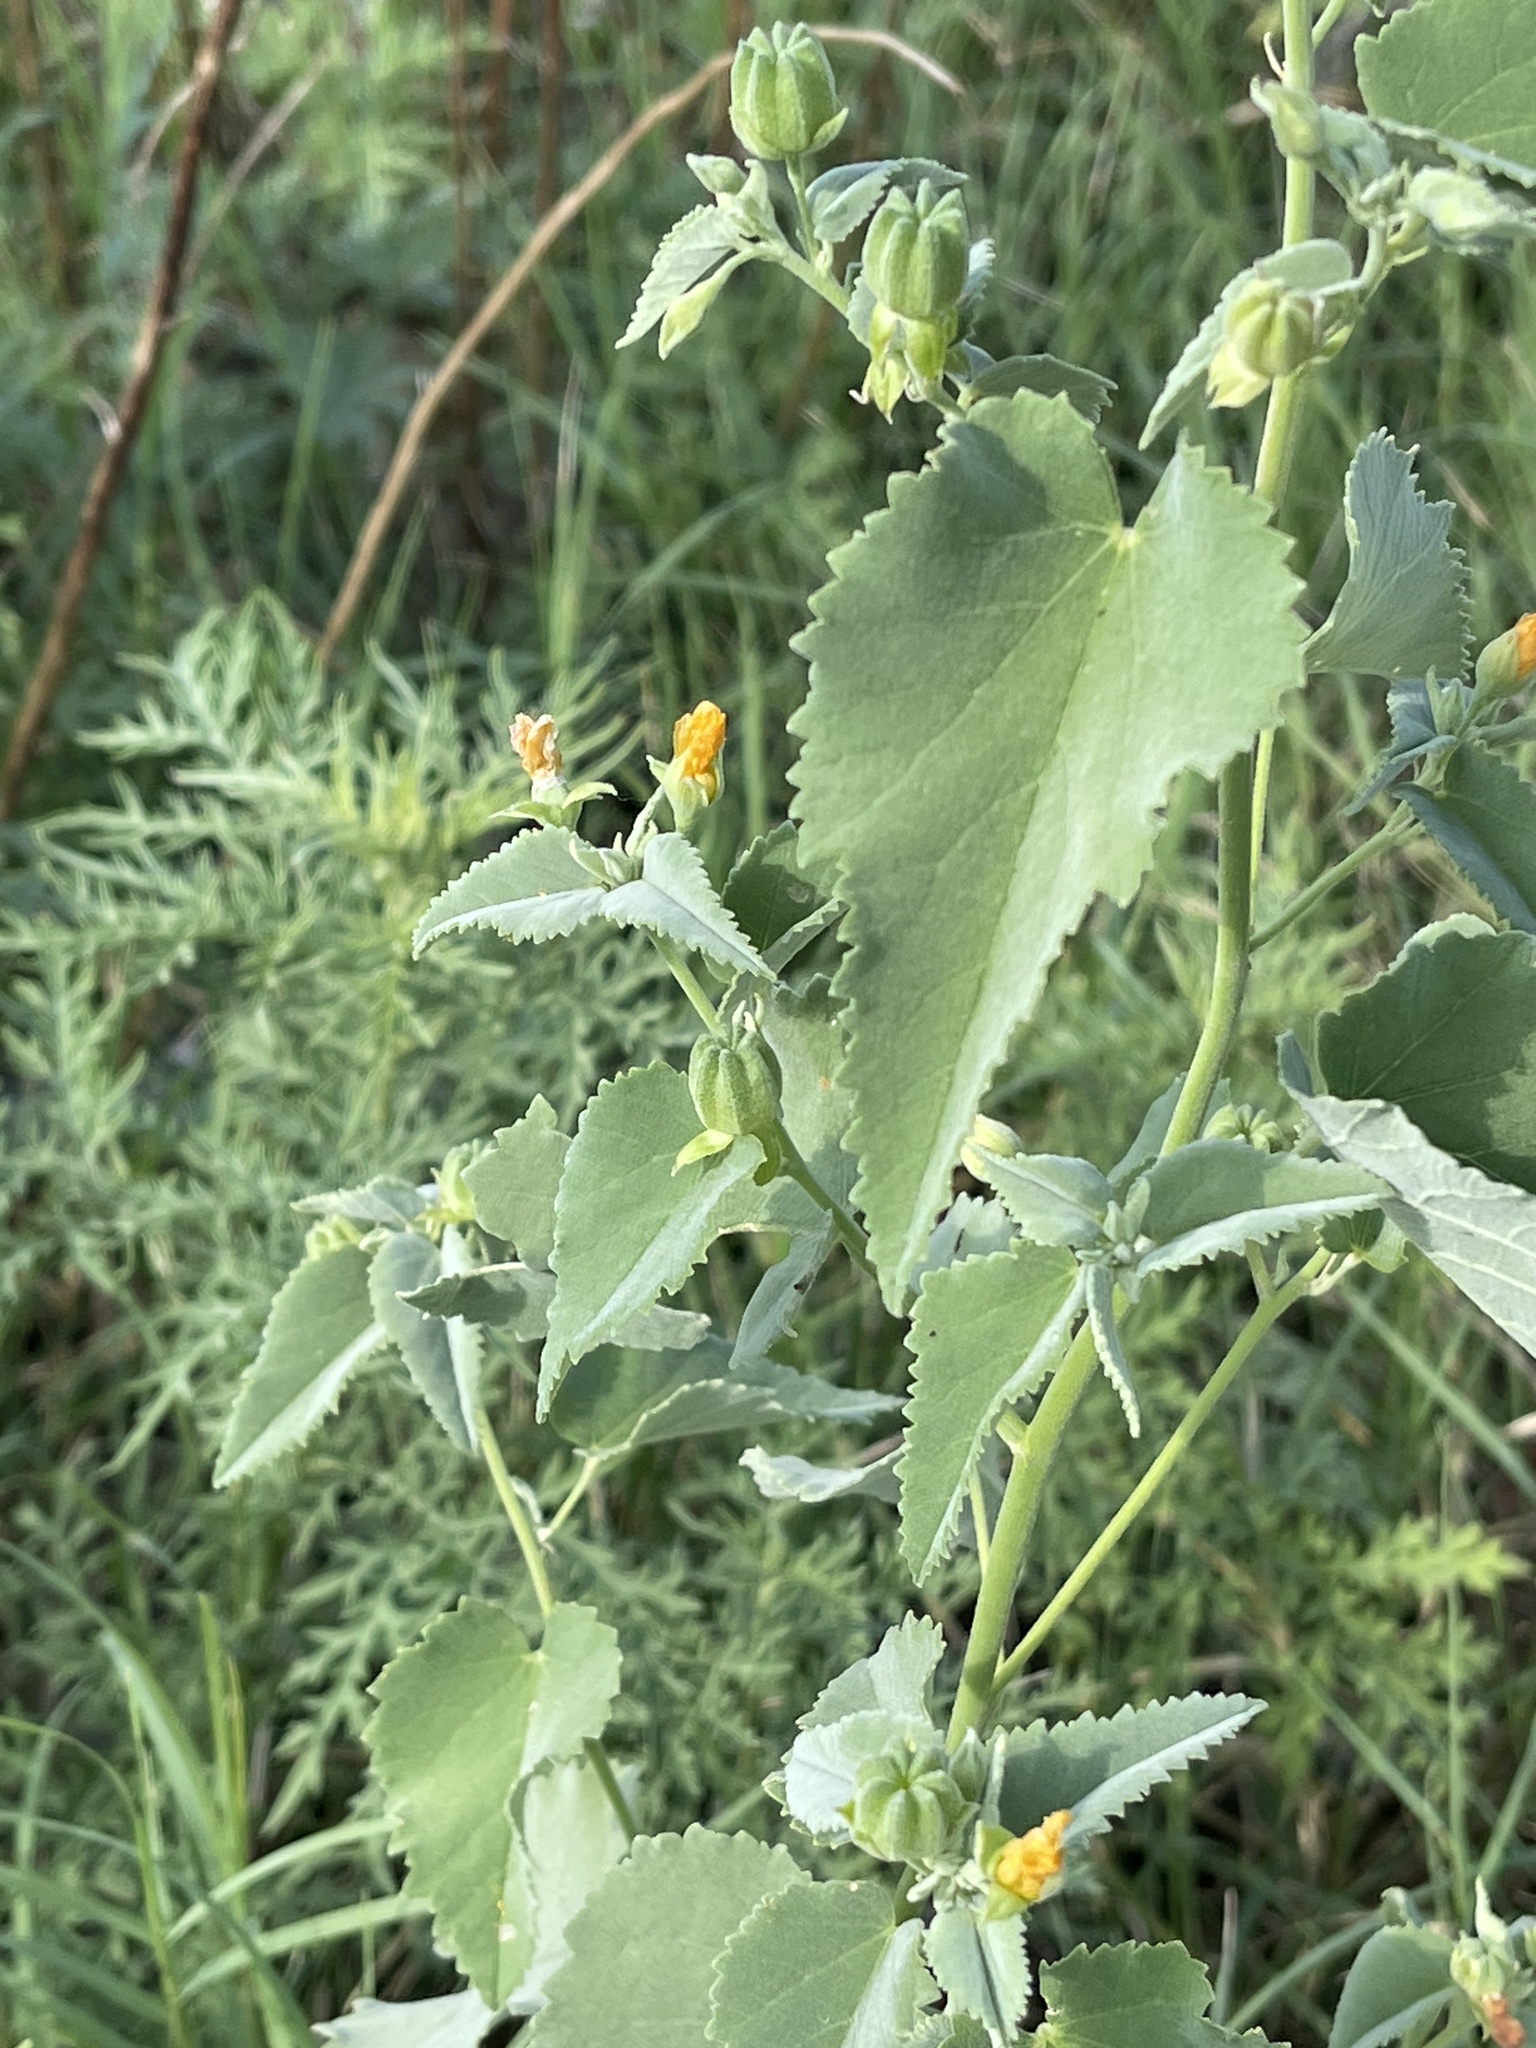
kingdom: Plantae
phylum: Tracheophyta
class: Magnoliopsida
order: Malvales
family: Malvaceae
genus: Abutilon
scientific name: Abutilon fruticosum
